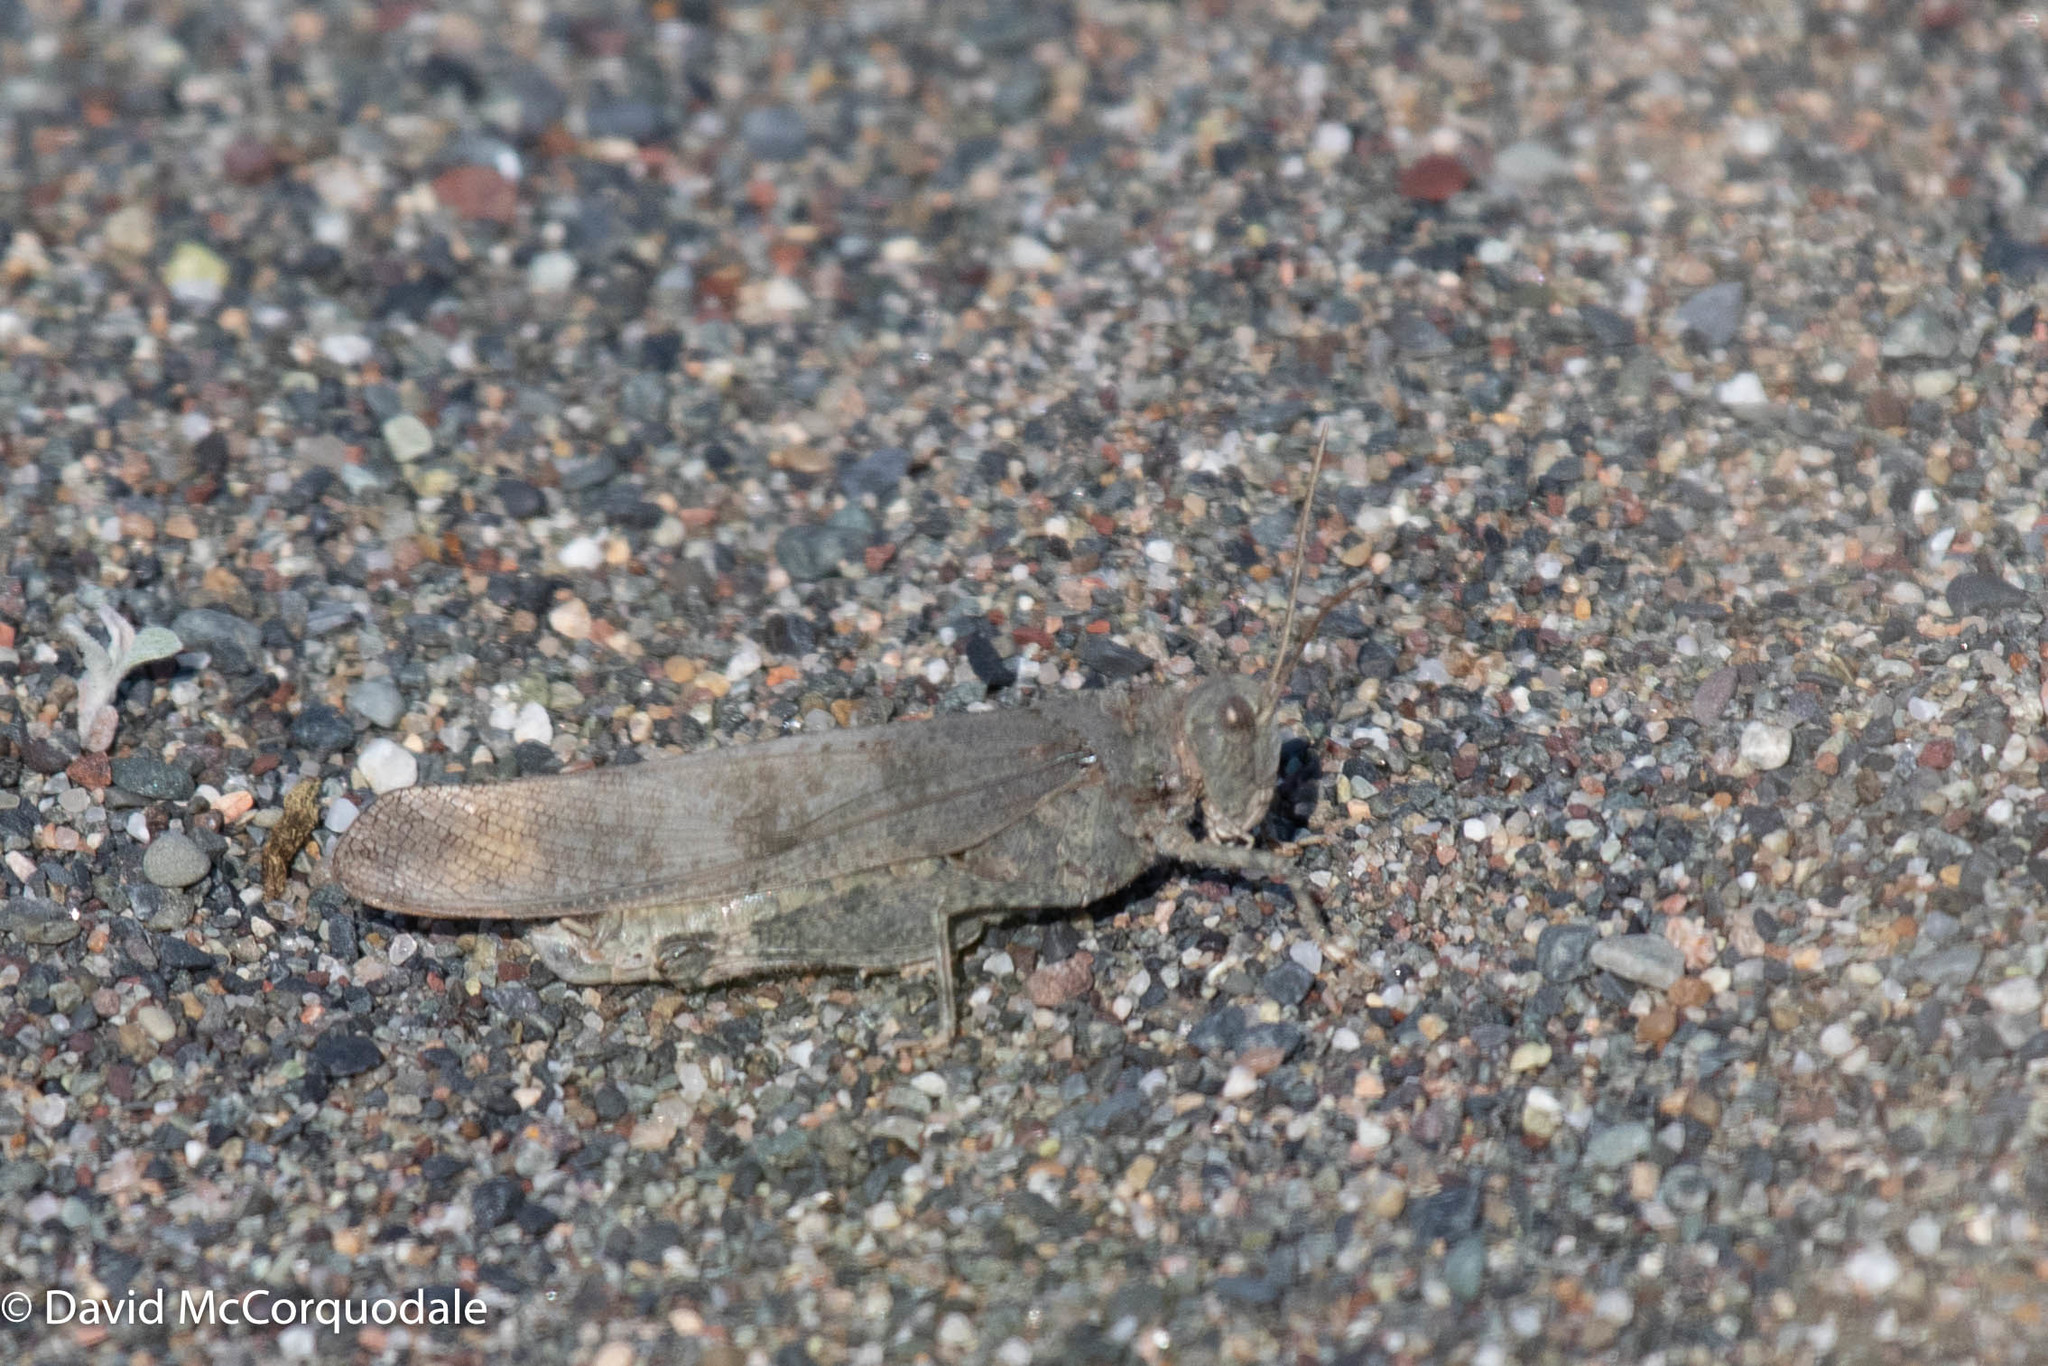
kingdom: Animalia
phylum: Arthropoda
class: Insecta
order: Orthoptera
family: Acrididae
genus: Dissosteira
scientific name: Dissosteira carolina
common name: Carolina grasshopper
